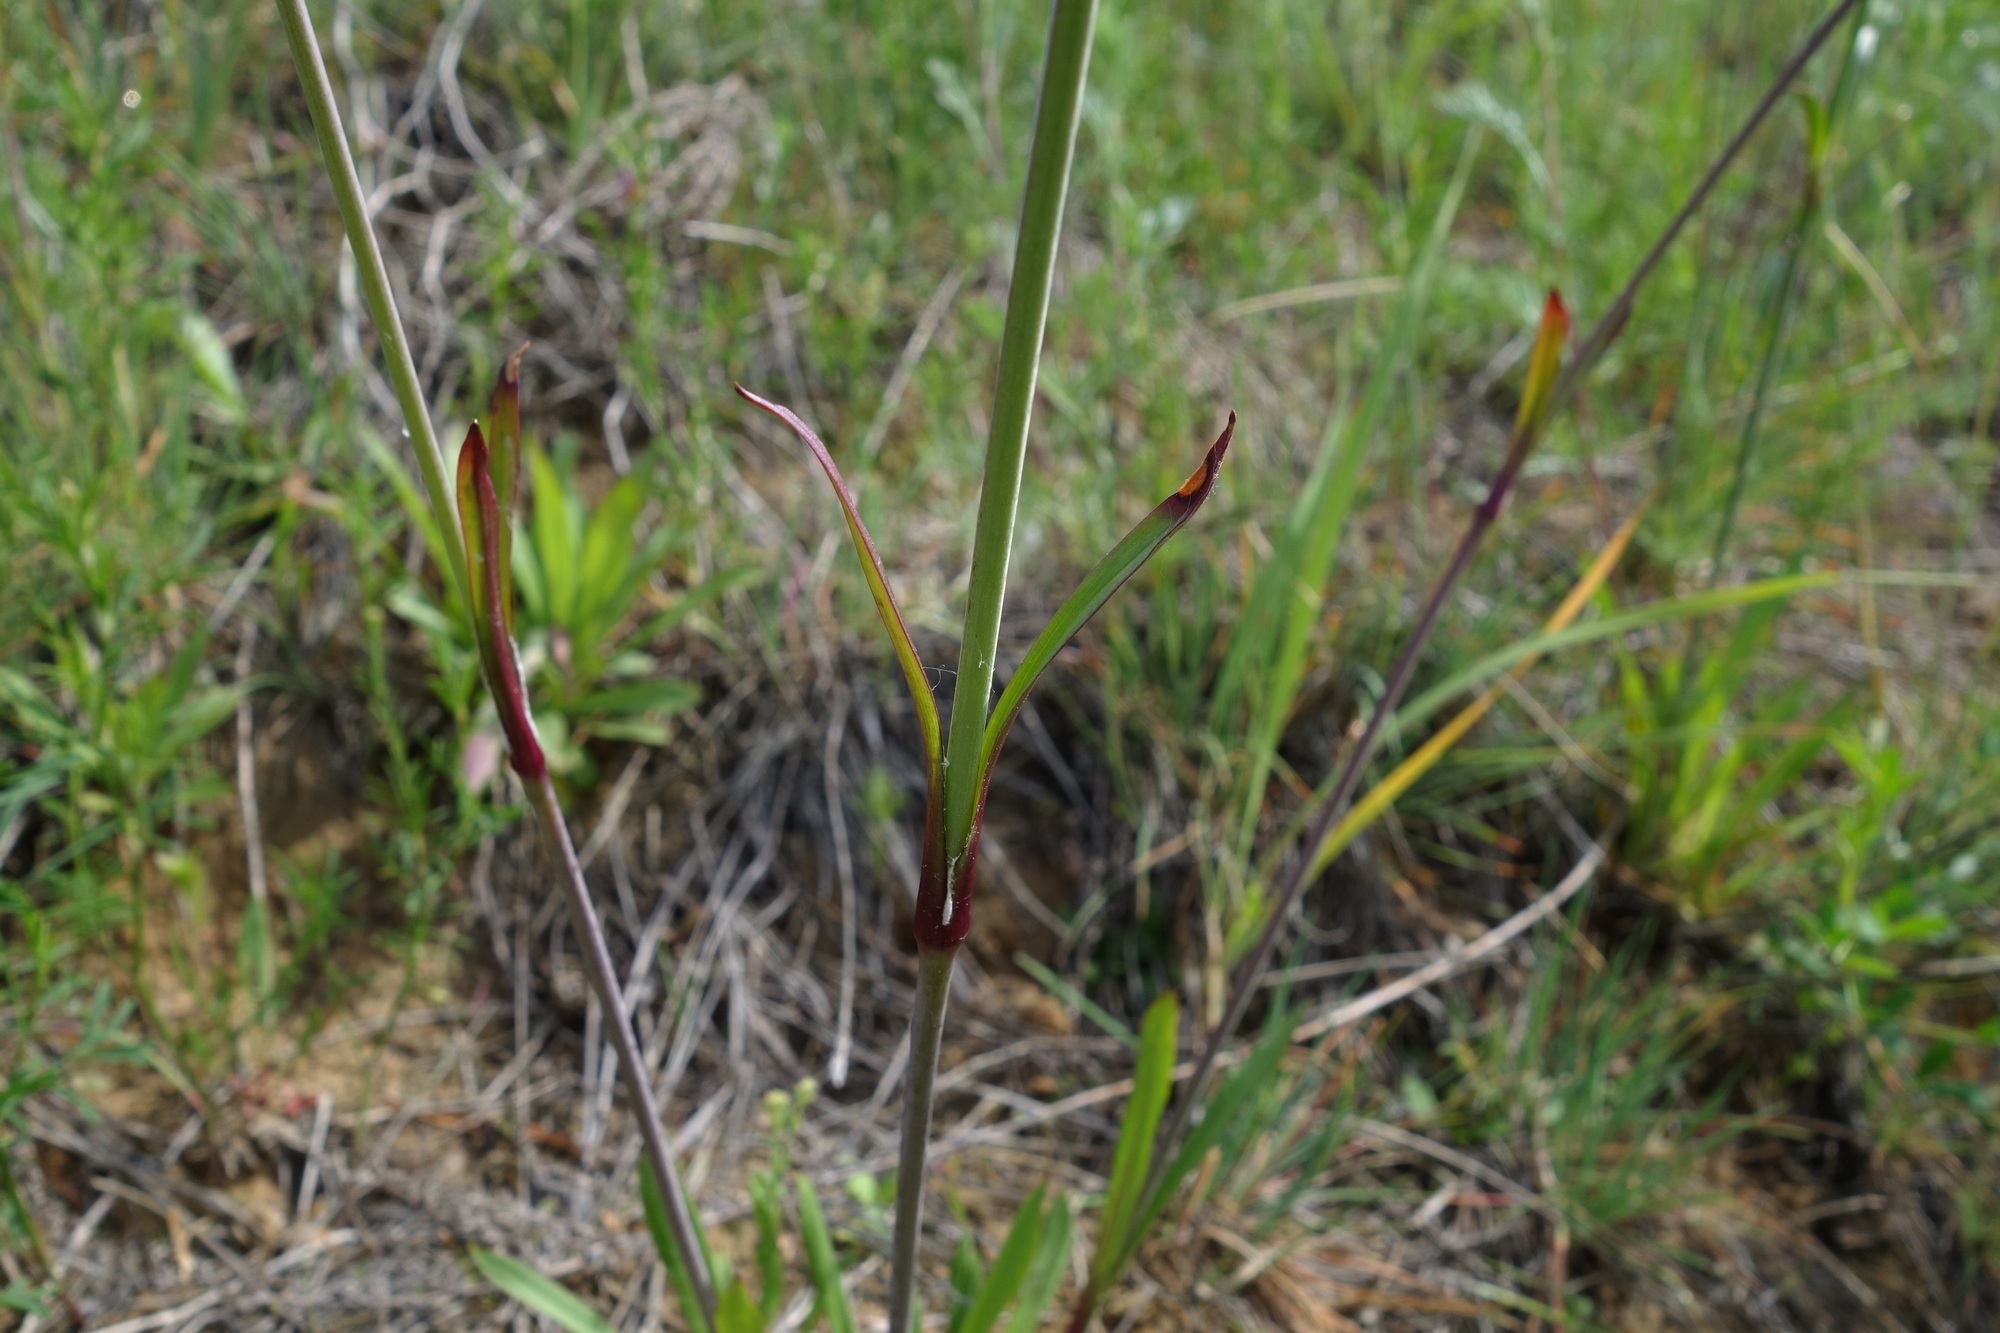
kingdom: Plantae
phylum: Tracheophyta
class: Magnoliopsida
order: Caryophyllales
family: Caryophyllaceae
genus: Viscaria
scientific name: Viscaria vulgaris
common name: Clammy campion
